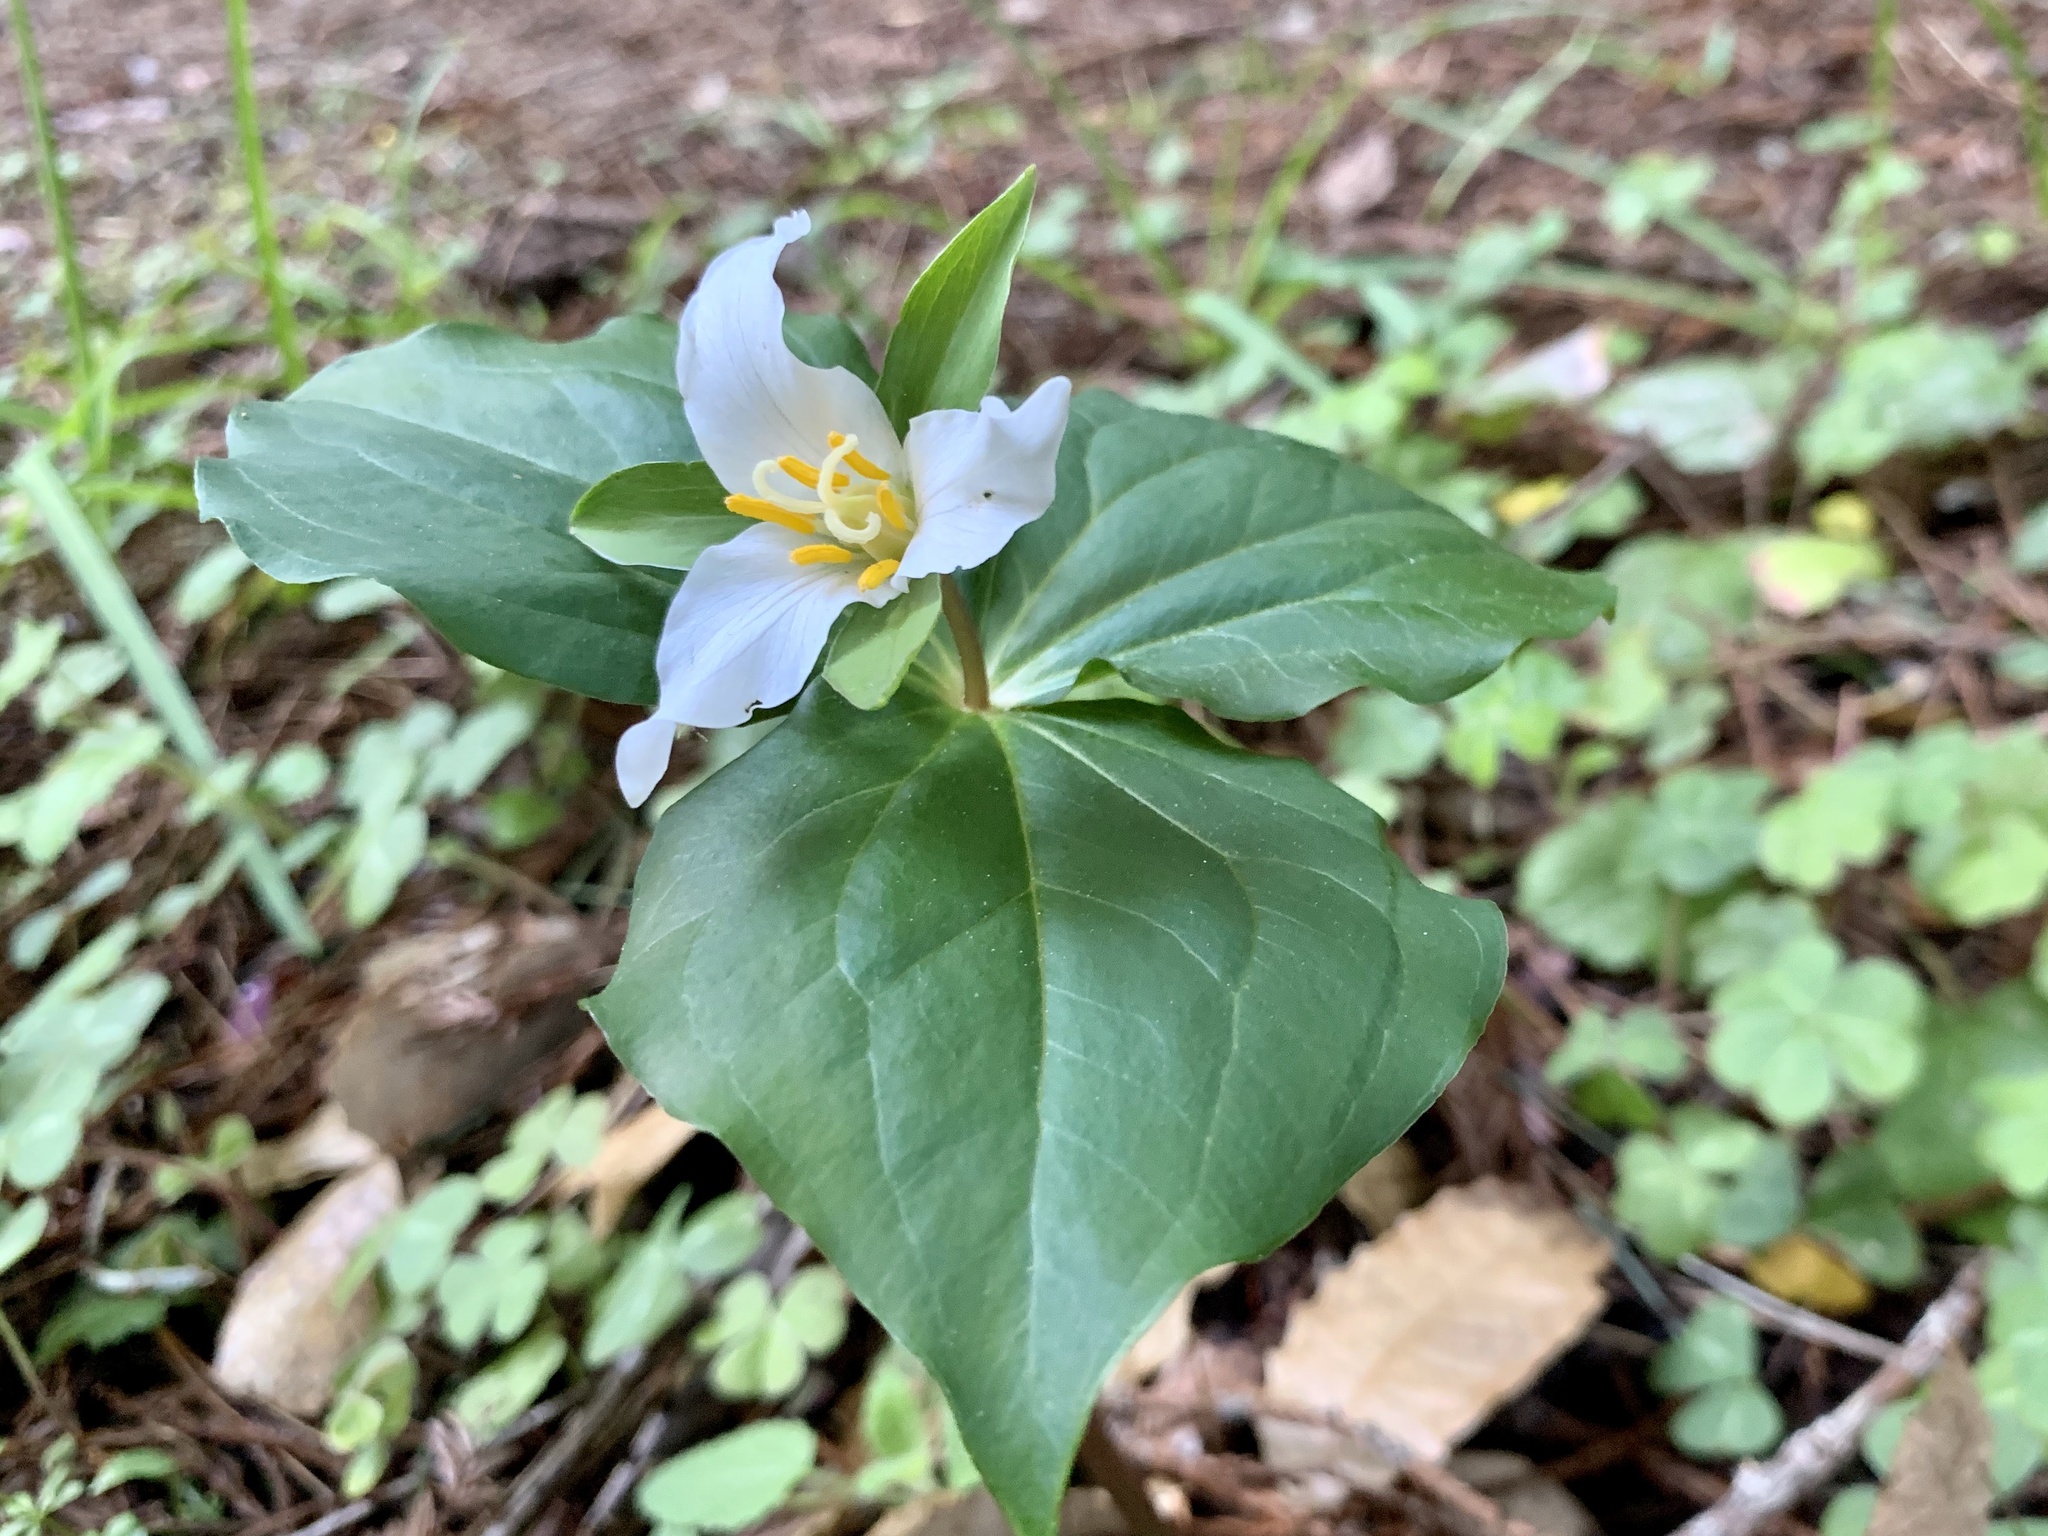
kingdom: Plantae
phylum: Tracheophyta
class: Liliopsida
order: Liliales
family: Melanthiaceae
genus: Trillium
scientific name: Trillium ovatum
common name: Pacific trillium
